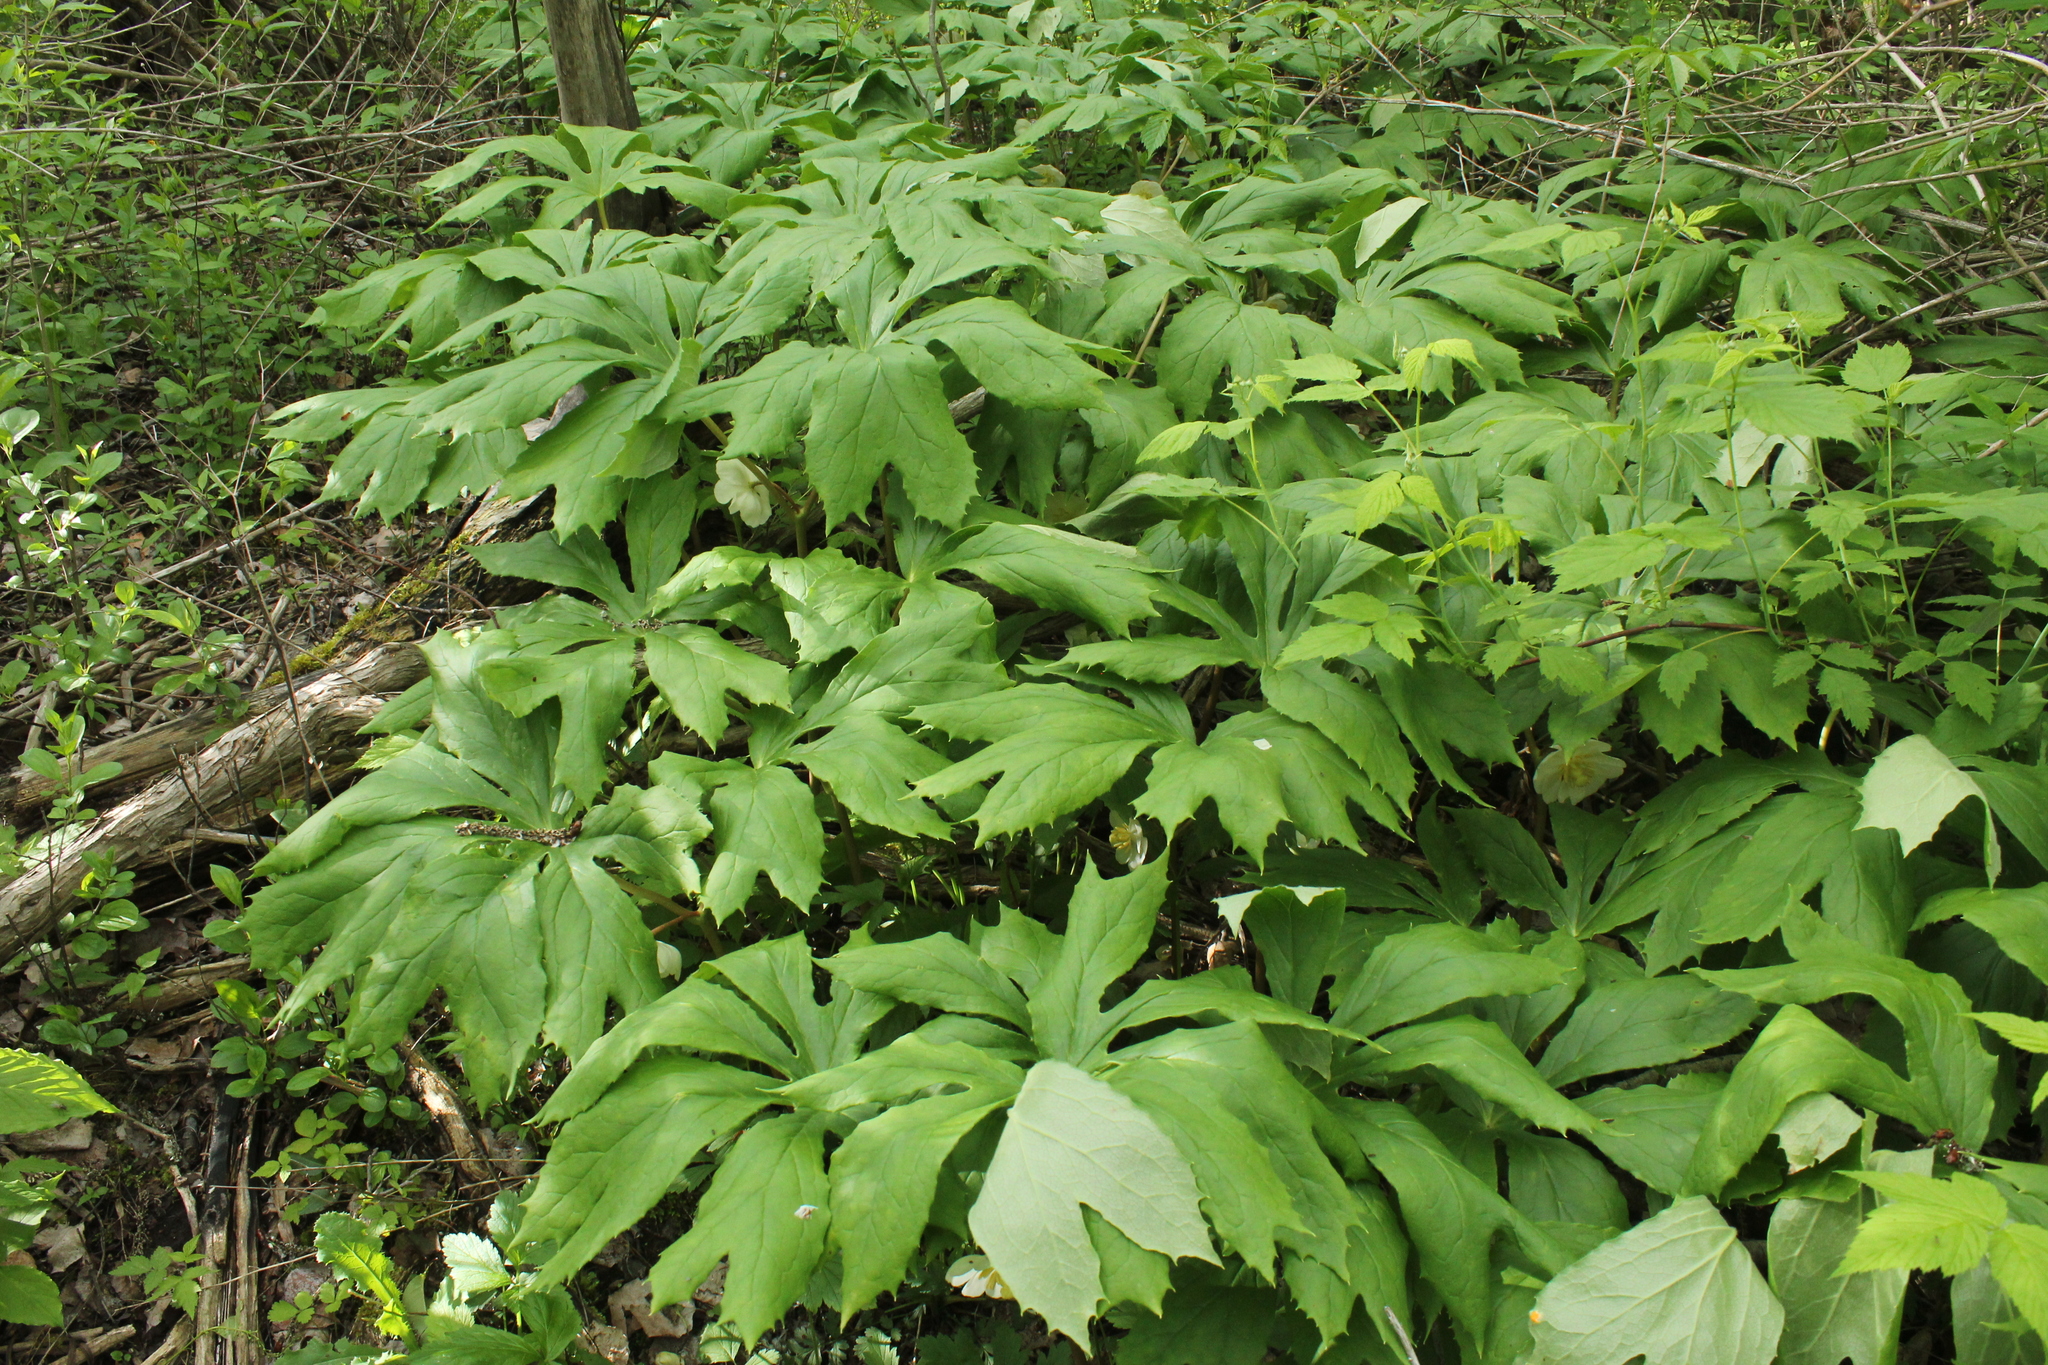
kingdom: Plantae
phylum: Tracheophyta
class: Magnoliopsida
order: Ranunculales
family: Berberidaceae
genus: Podophyllum
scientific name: Podophyllum peltatum
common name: Wild mandrake
